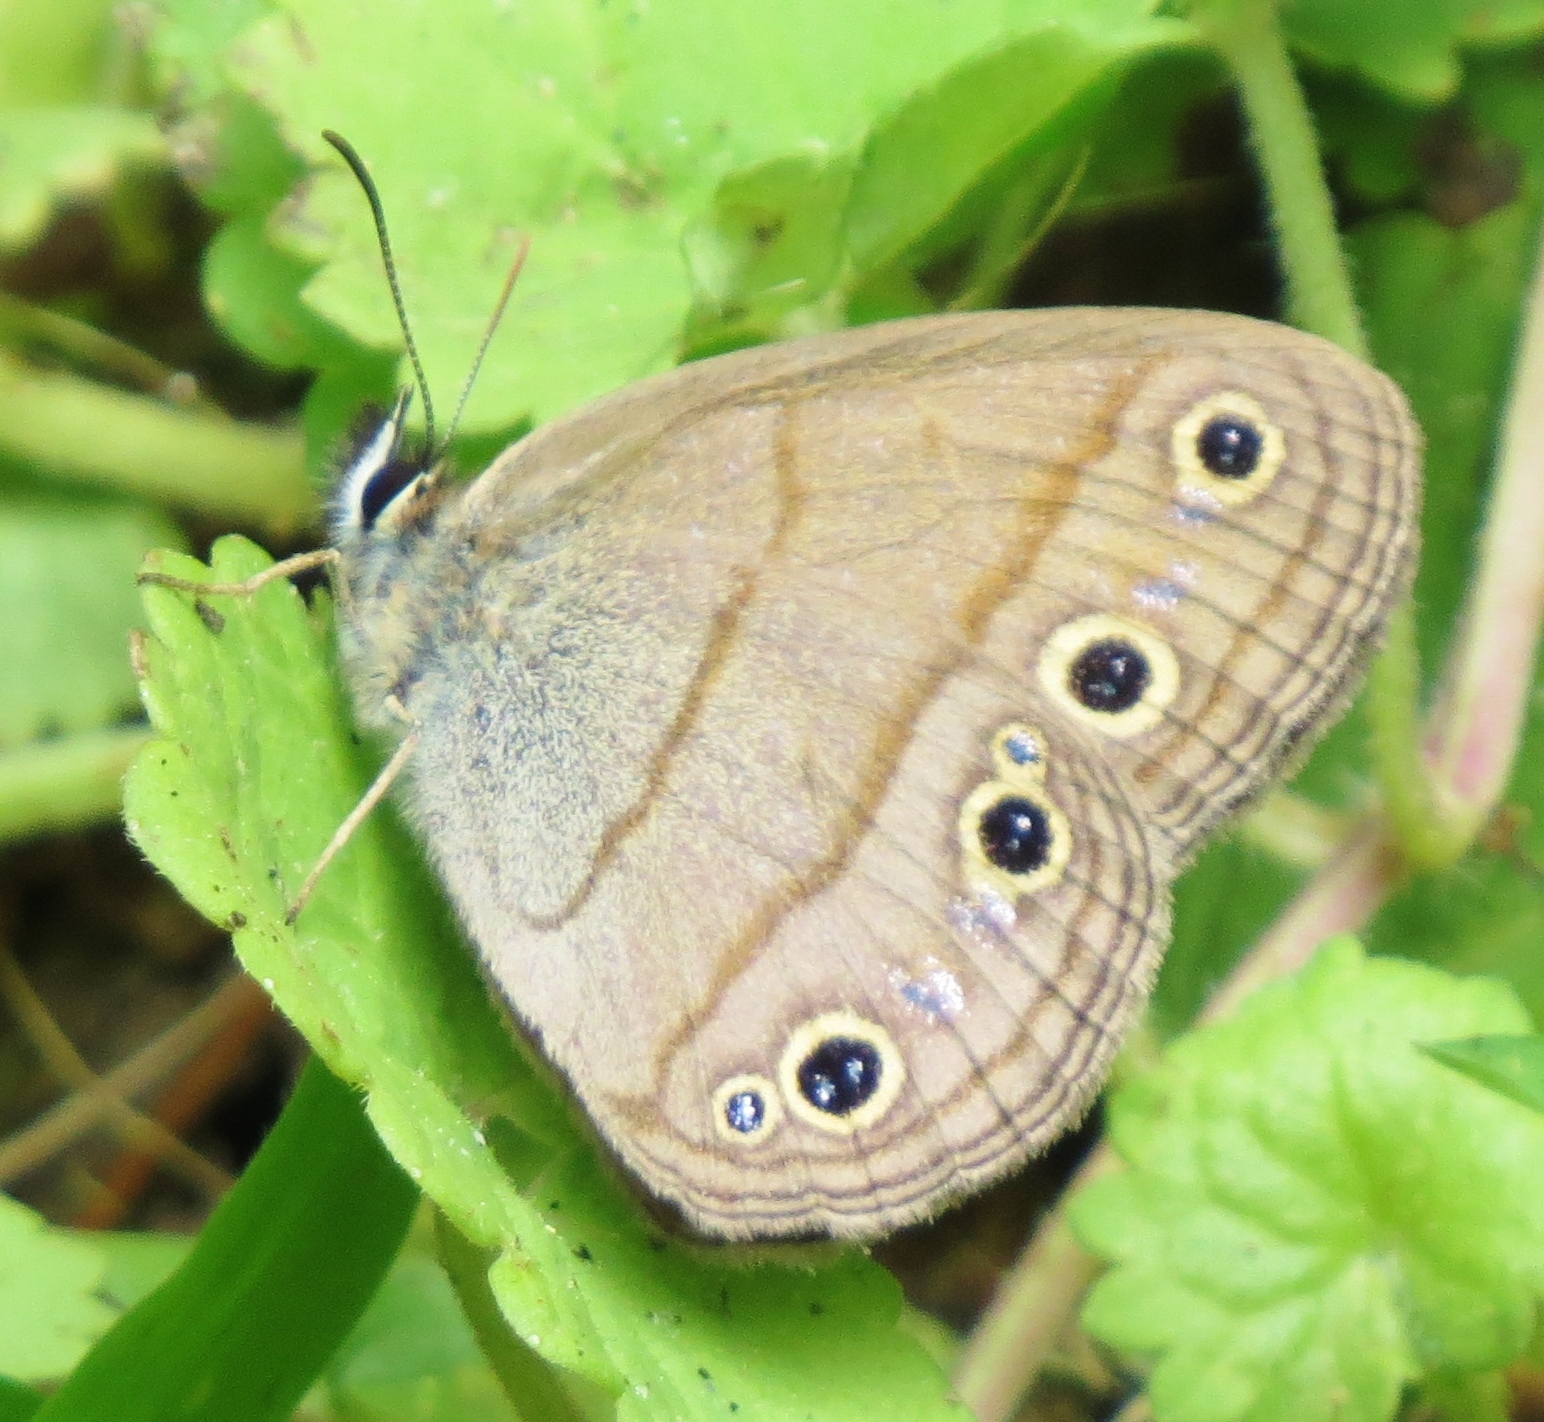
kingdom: Animalia
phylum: Arthropoda
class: Insecta
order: Lepidoptera
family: Nymphalidae
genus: Euptychia
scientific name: Euptychia cymela
